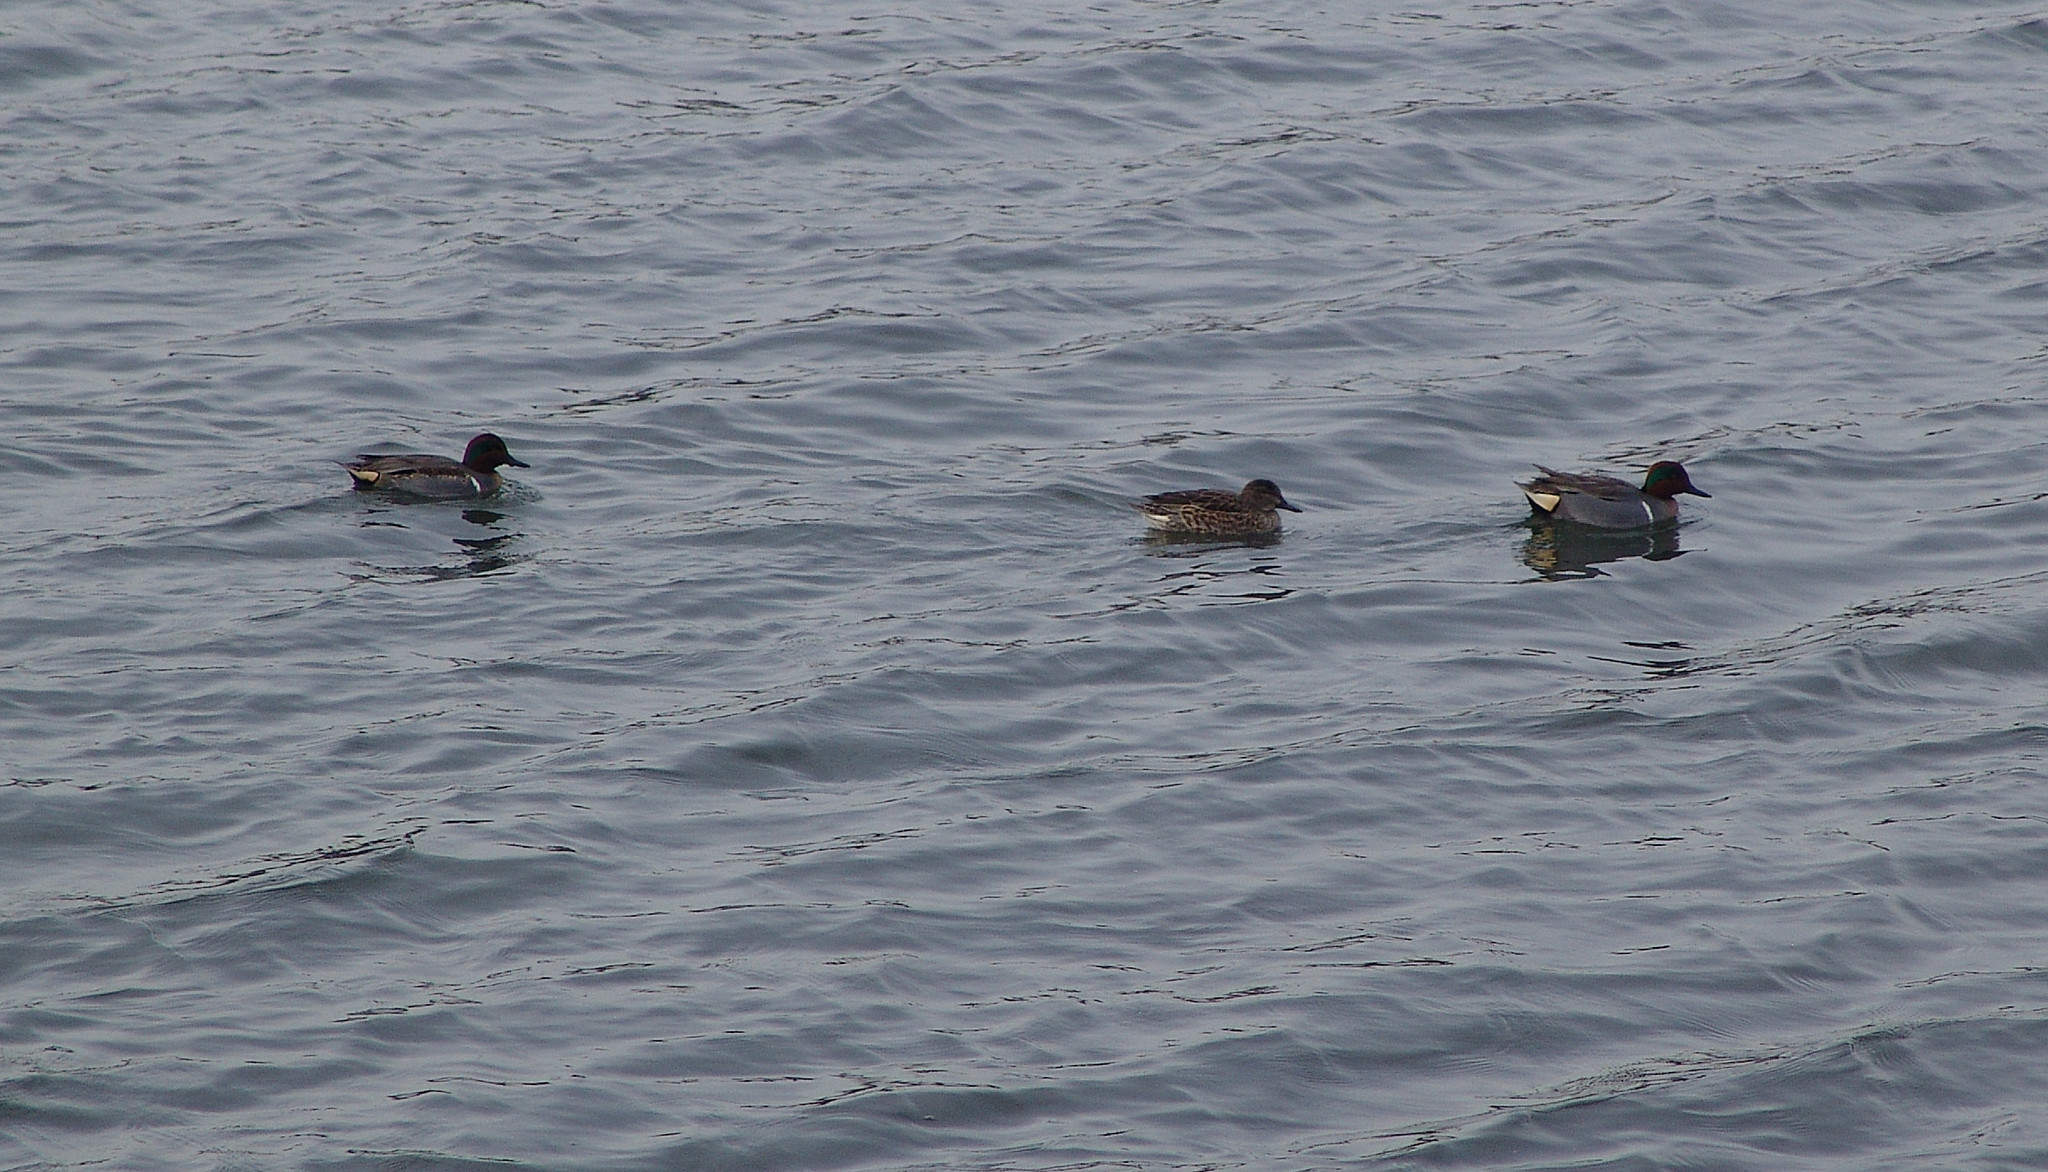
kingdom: Animalia
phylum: Chordata
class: Aves
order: Anseriformes
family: Anatidae
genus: Anas
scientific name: Anas crecca
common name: Eurasian teal
